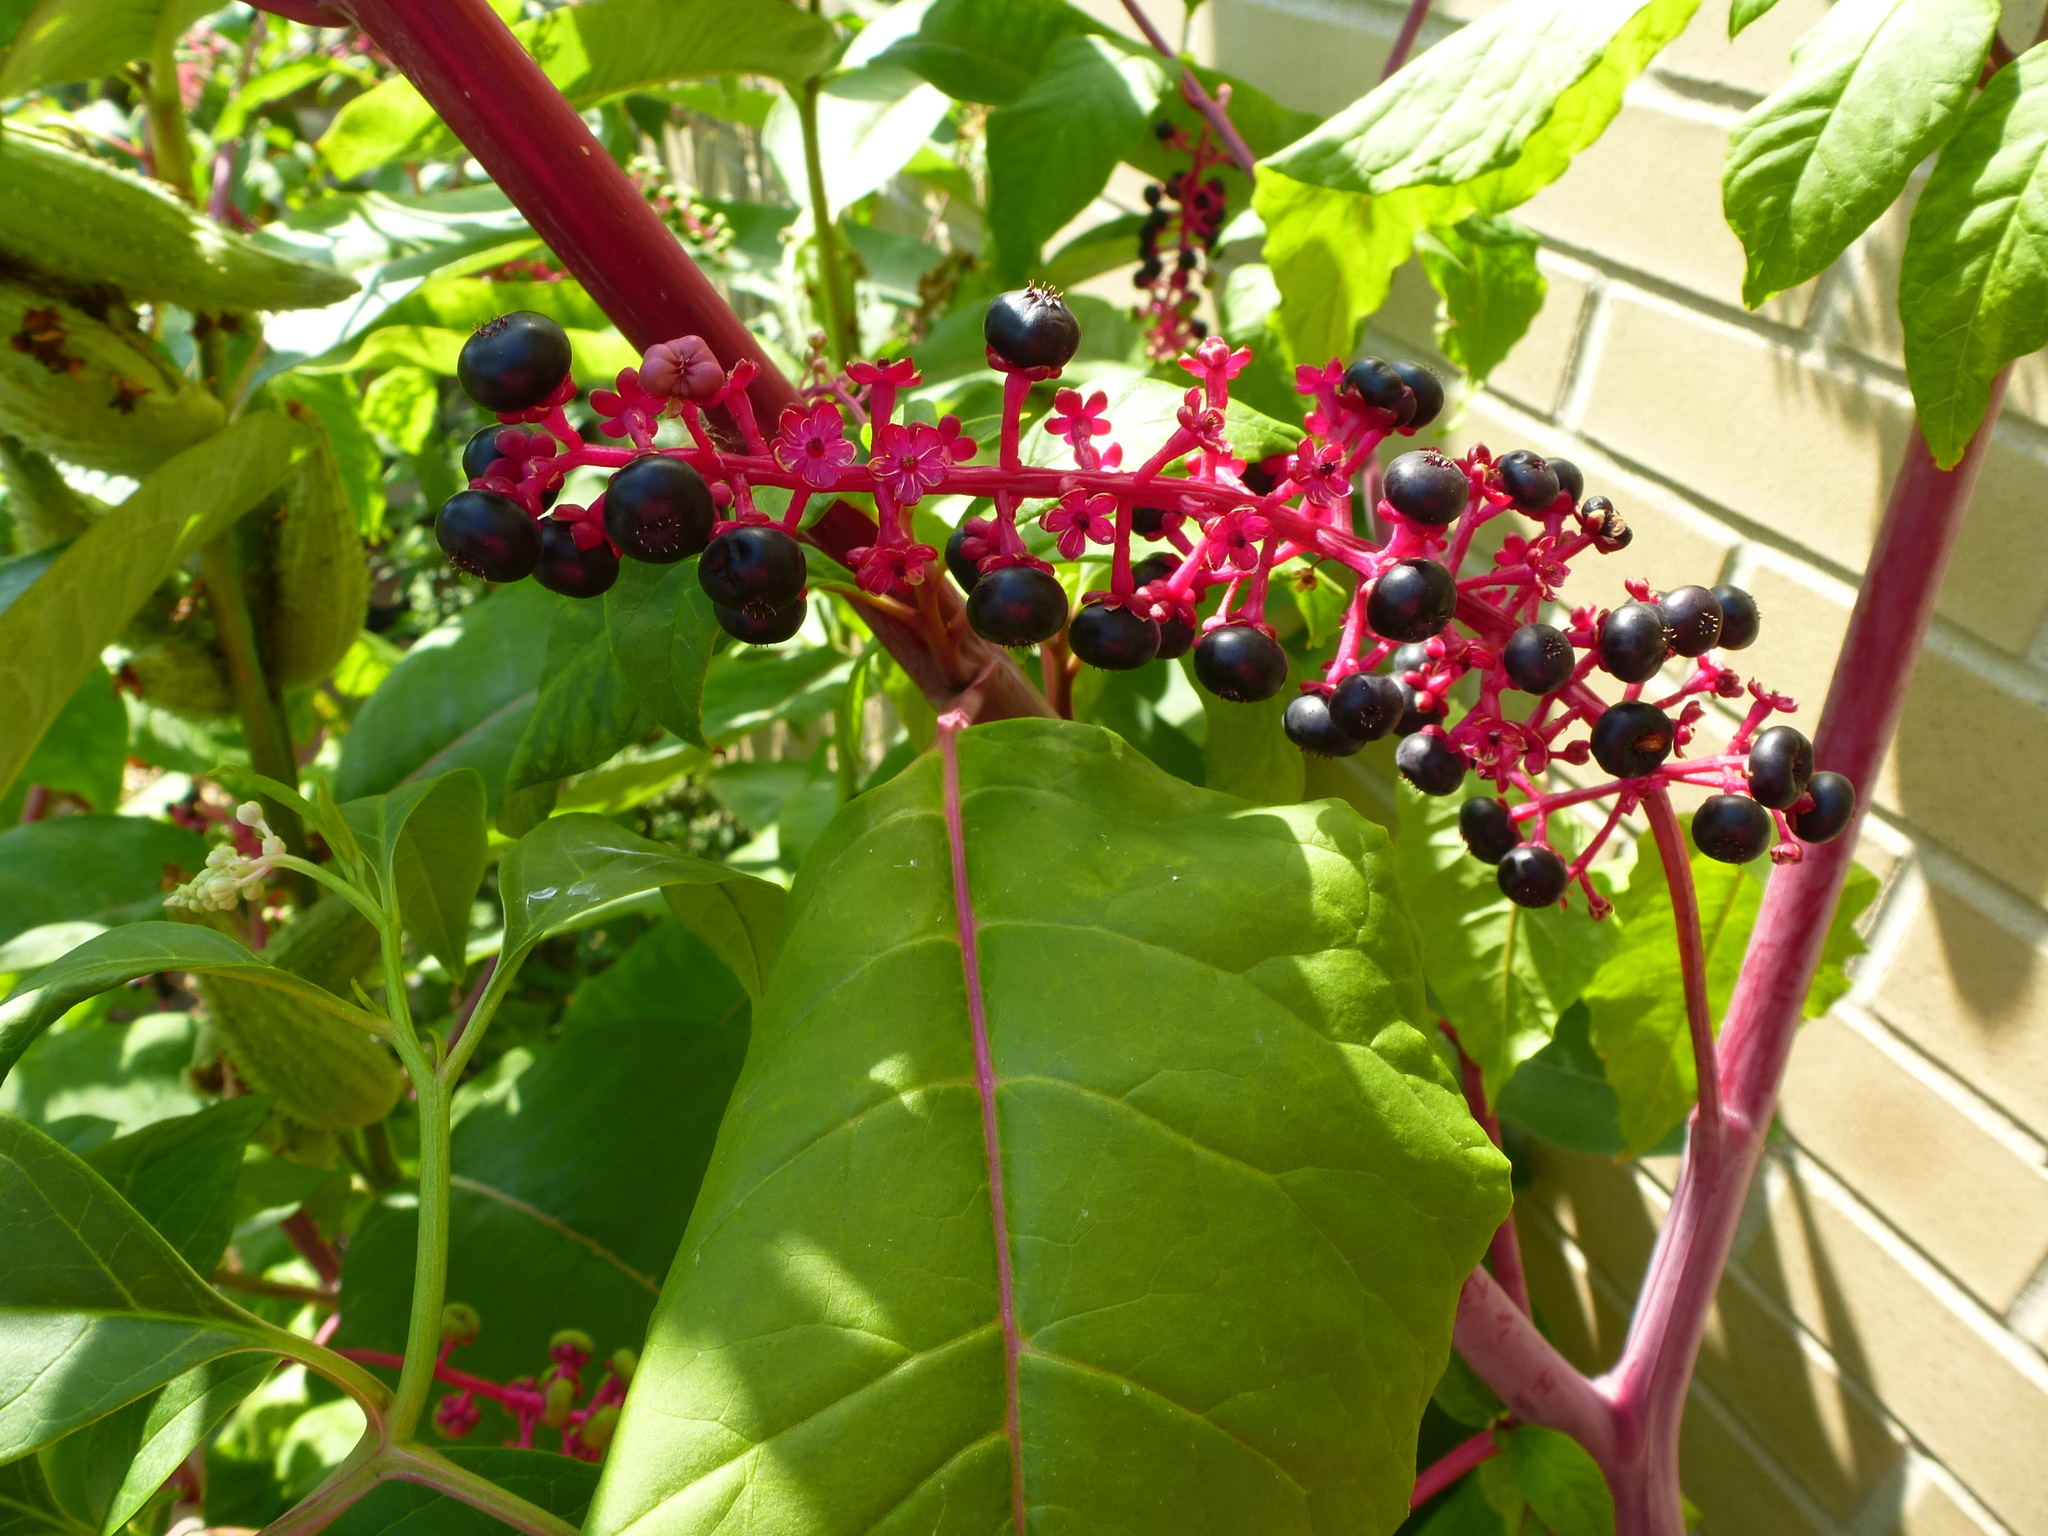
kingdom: Plantae
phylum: Tracheophyta
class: Magnoliopsida
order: Caryophyllales
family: Phytolaccaceae
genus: Phytolacca
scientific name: Phytolacca americana
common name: American pokeweed
